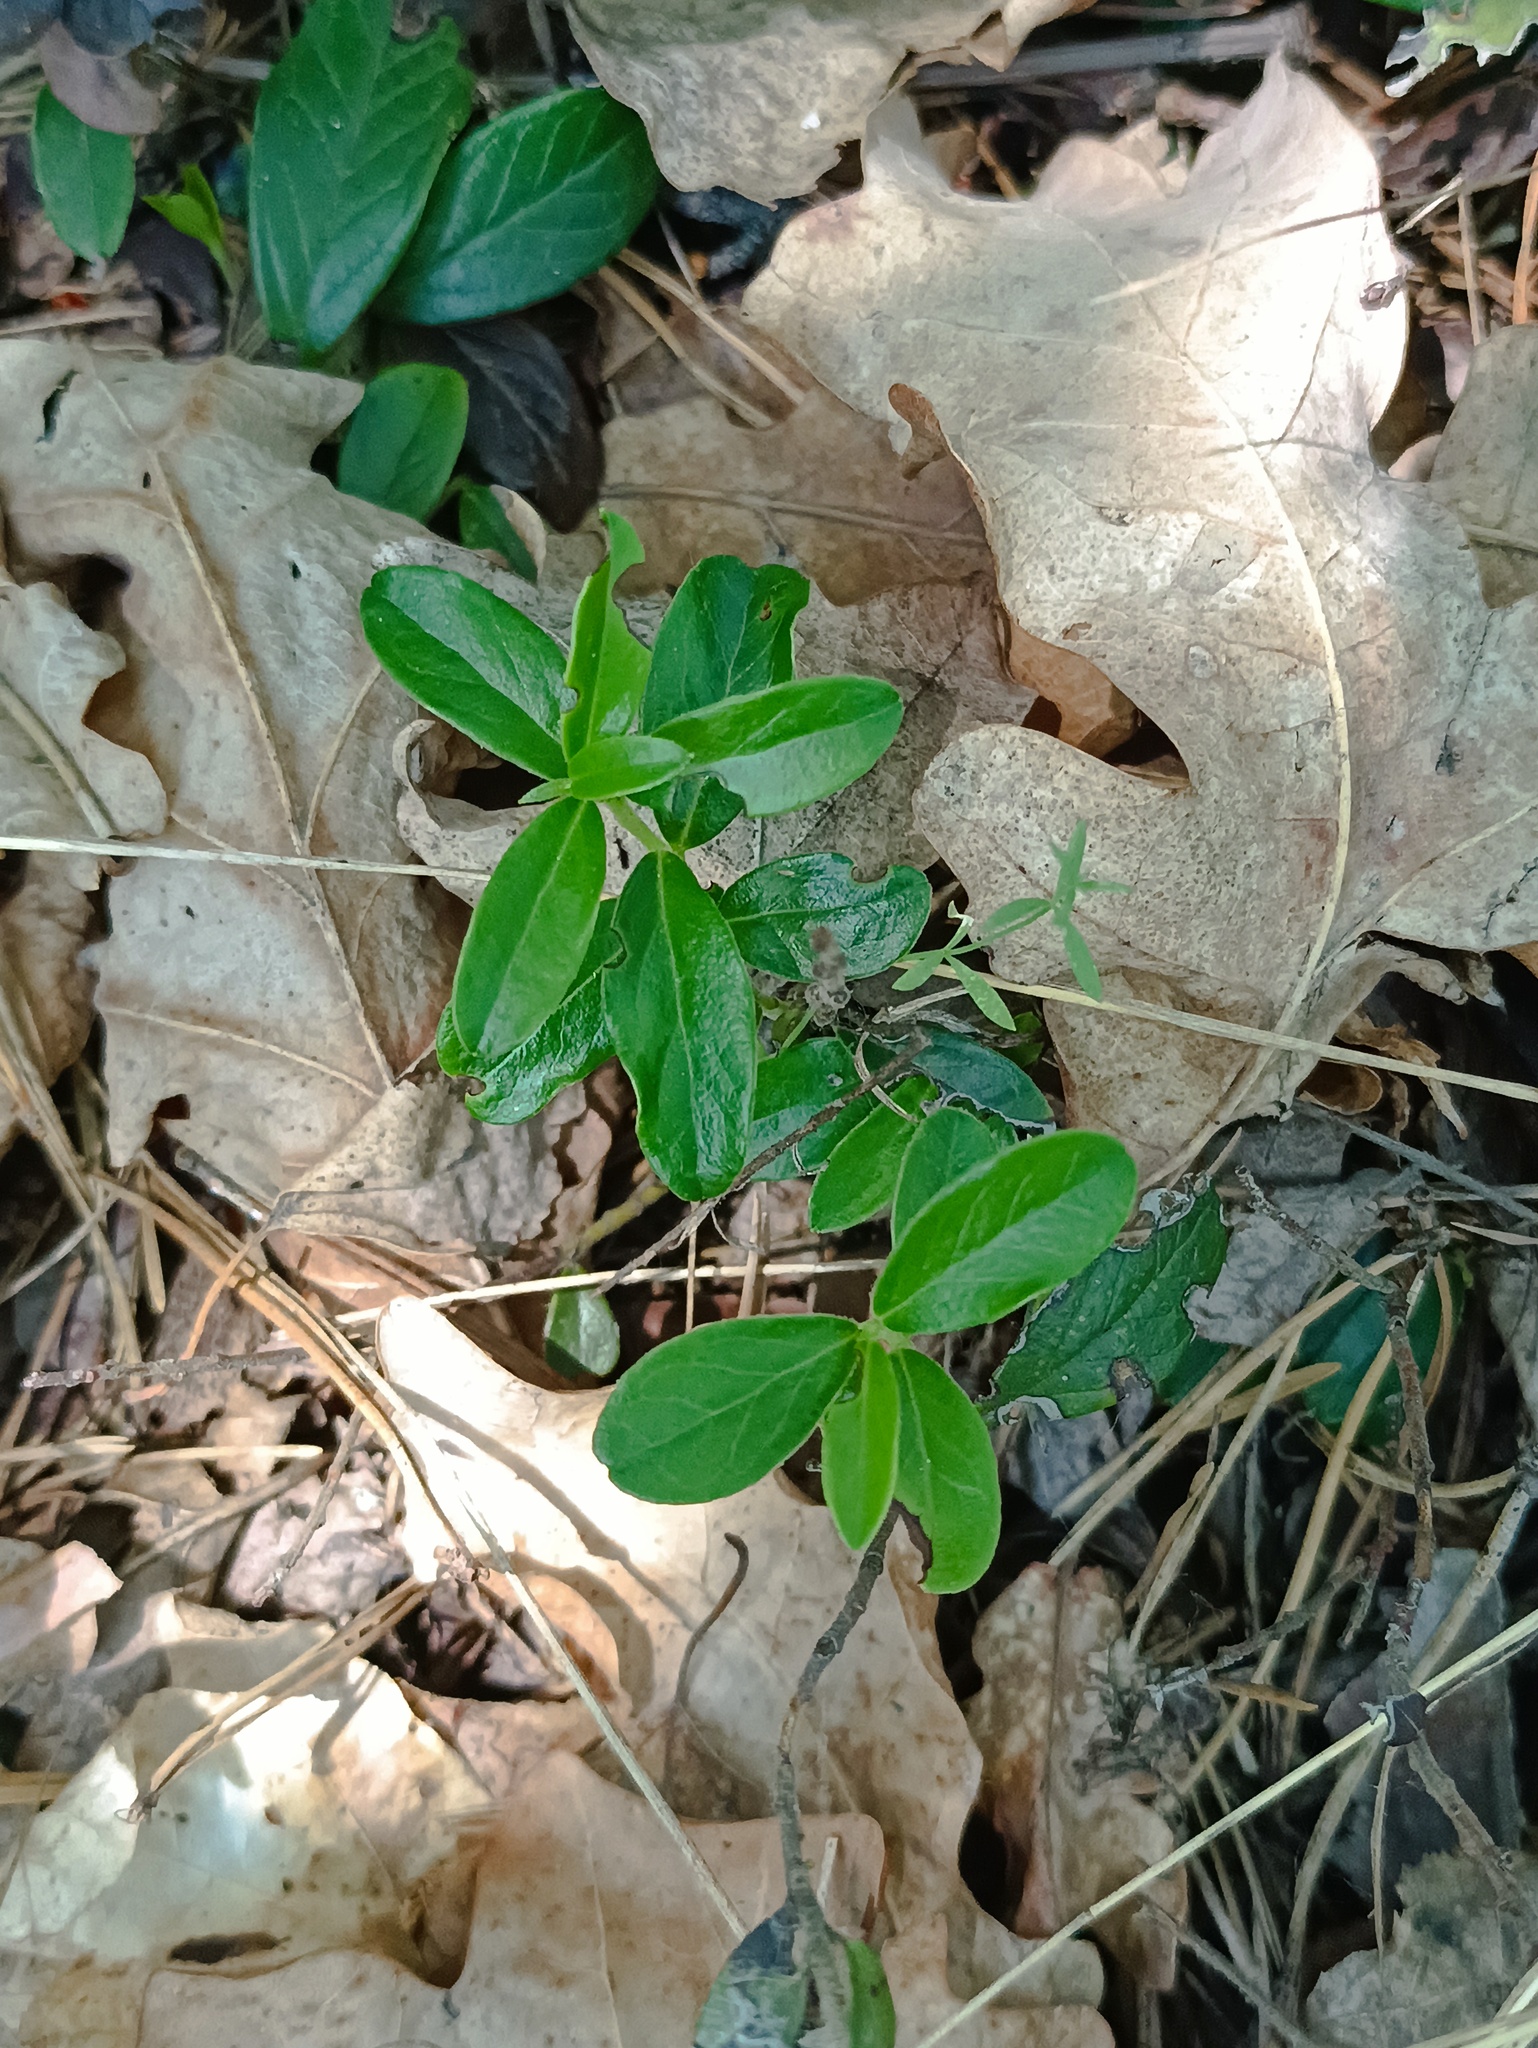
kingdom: Plantae
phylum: Tracheophyta
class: Magnoliopsida
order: Ericales
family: Ericaceae
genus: Vaccinium
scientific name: Vaccinium vitis-idaea
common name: Cowberry
